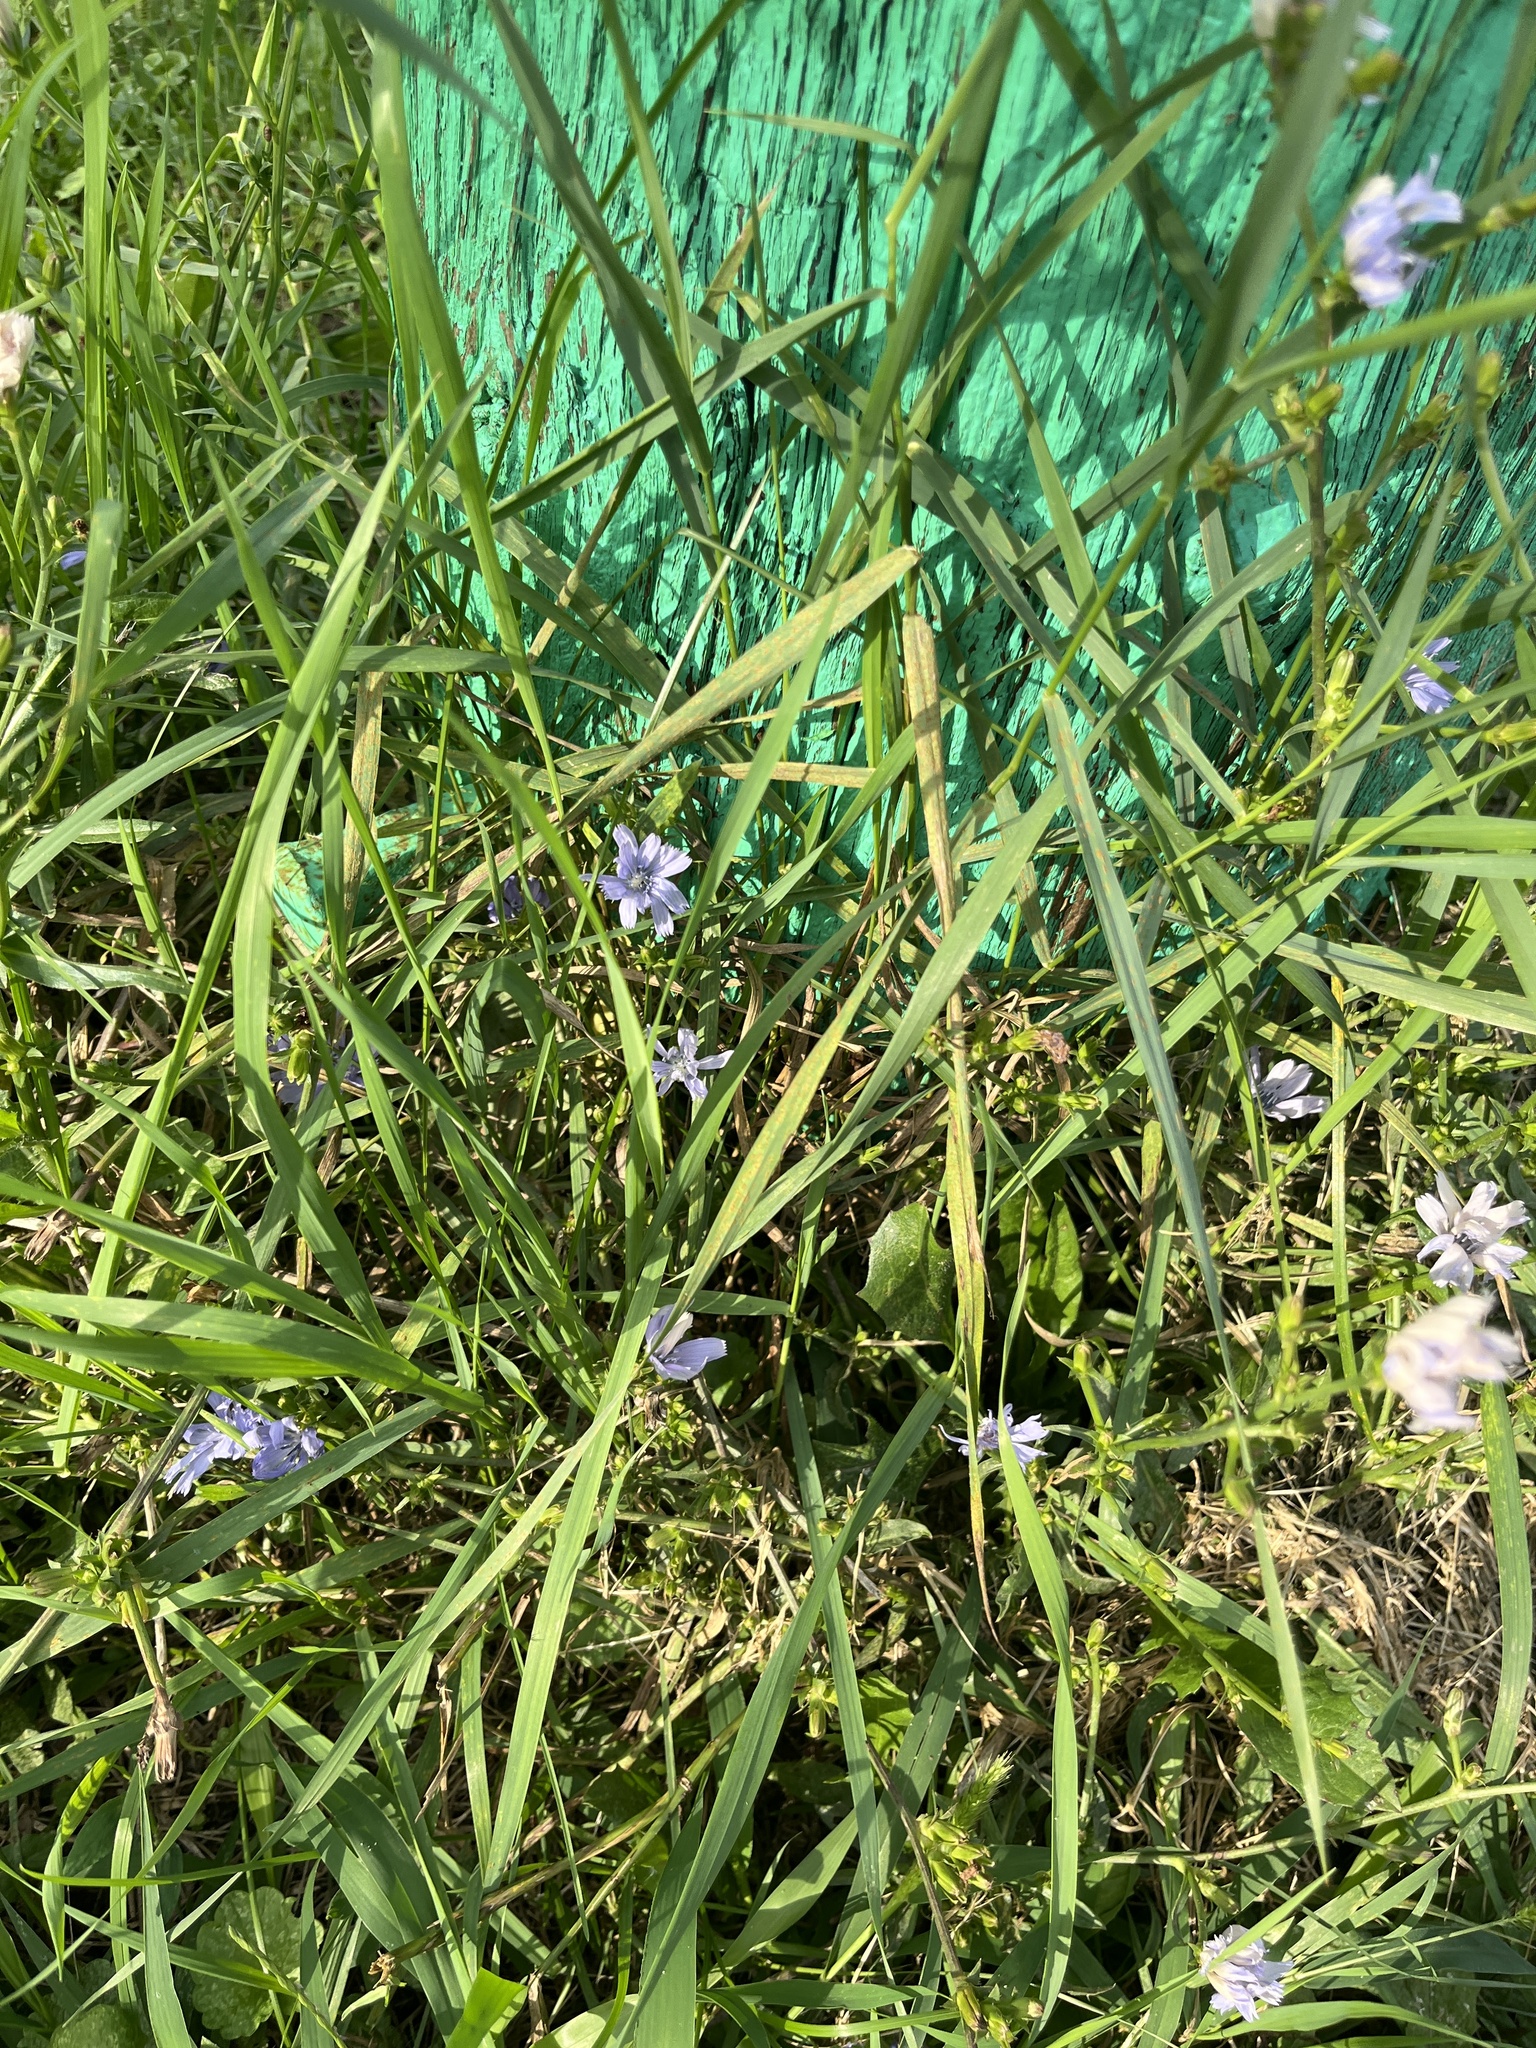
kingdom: Plantae
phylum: Tracheophyta
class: Magnoliopsida
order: Asterales
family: Asteraceae
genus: Cichorium
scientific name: Cichorium intybus
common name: Chicory
